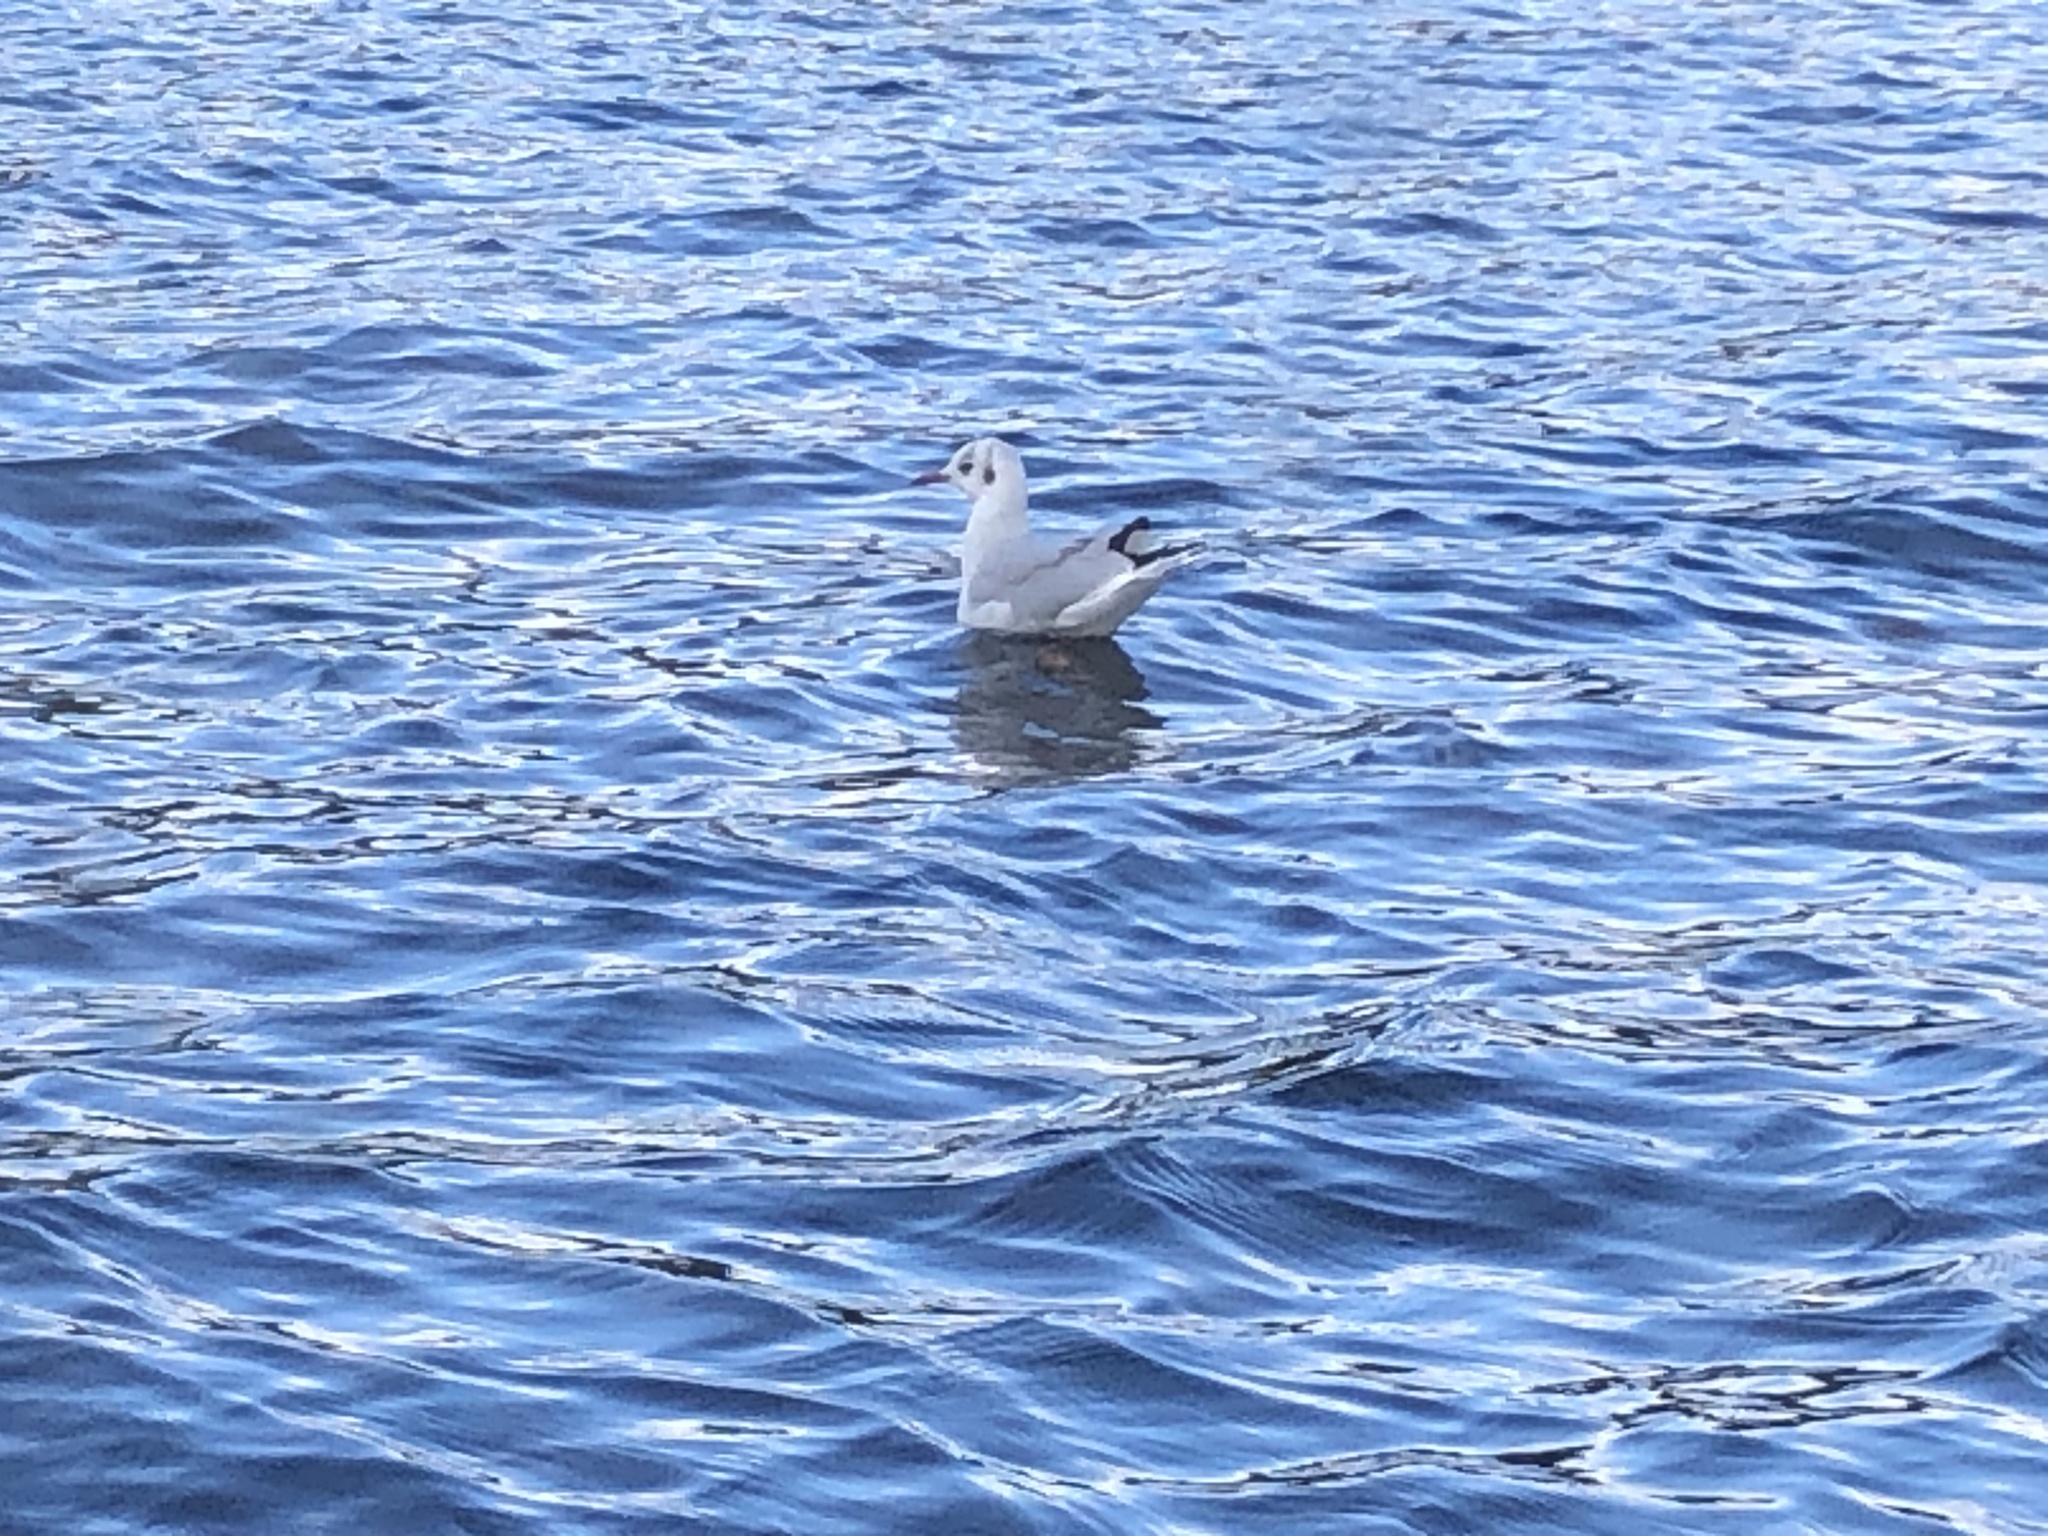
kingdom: Animalia
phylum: Chordata
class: Aves
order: Charadriiformes
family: Laridae
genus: Chroicocephalus
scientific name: Chroicocephalus ridibundus
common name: Black-headed gull
